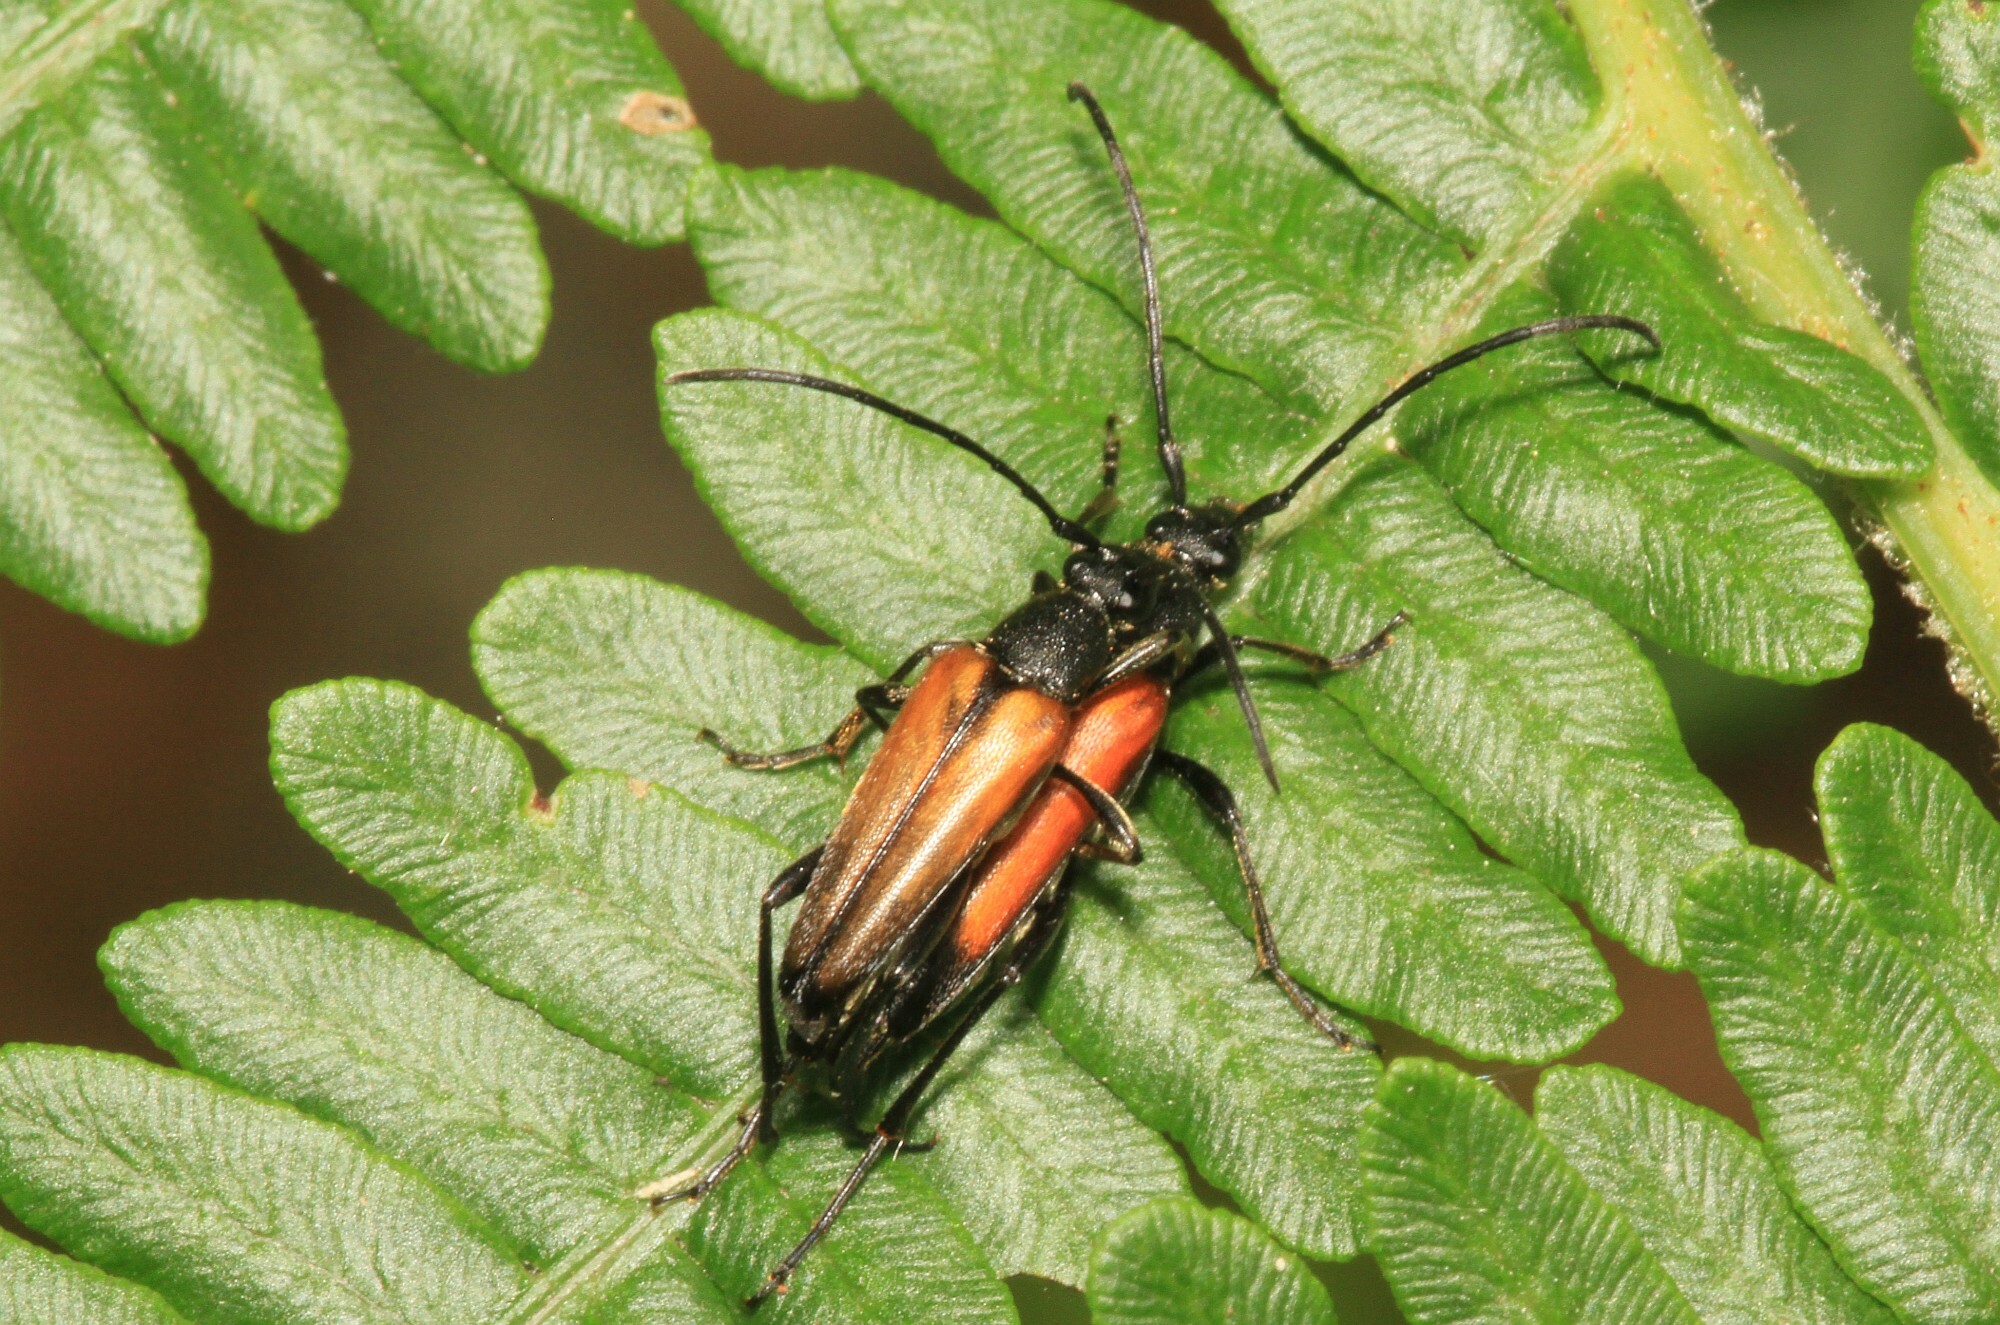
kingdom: Animalia
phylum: Arthropoda
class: Insecta
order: Coleoptera
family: Cerambycidae
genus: Stenurella
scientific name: Stenurella melanura
